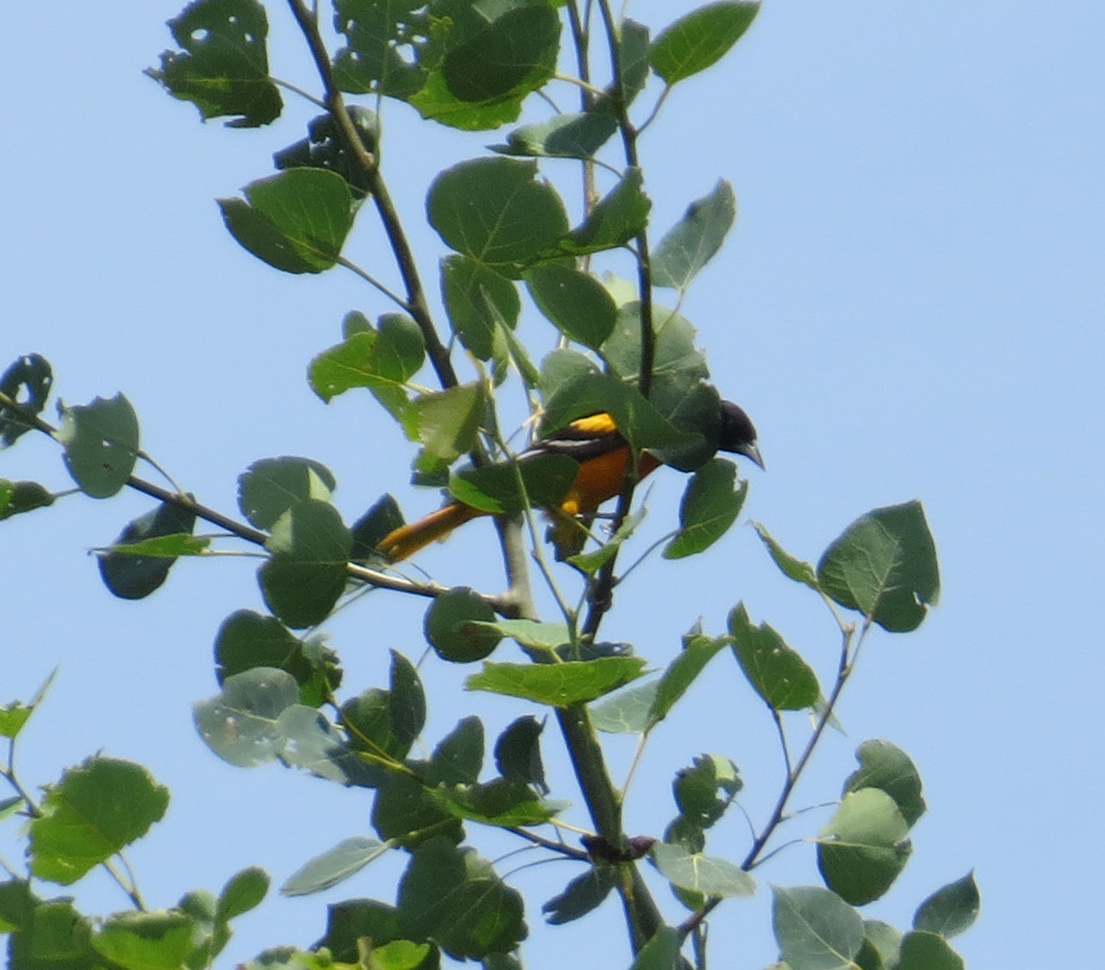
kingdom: Animalia
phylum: Chordata
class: Aves
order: Passeriformes
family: Icteridae
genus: Icterus
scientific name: Icterus galbula
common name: Baltimore oriole
